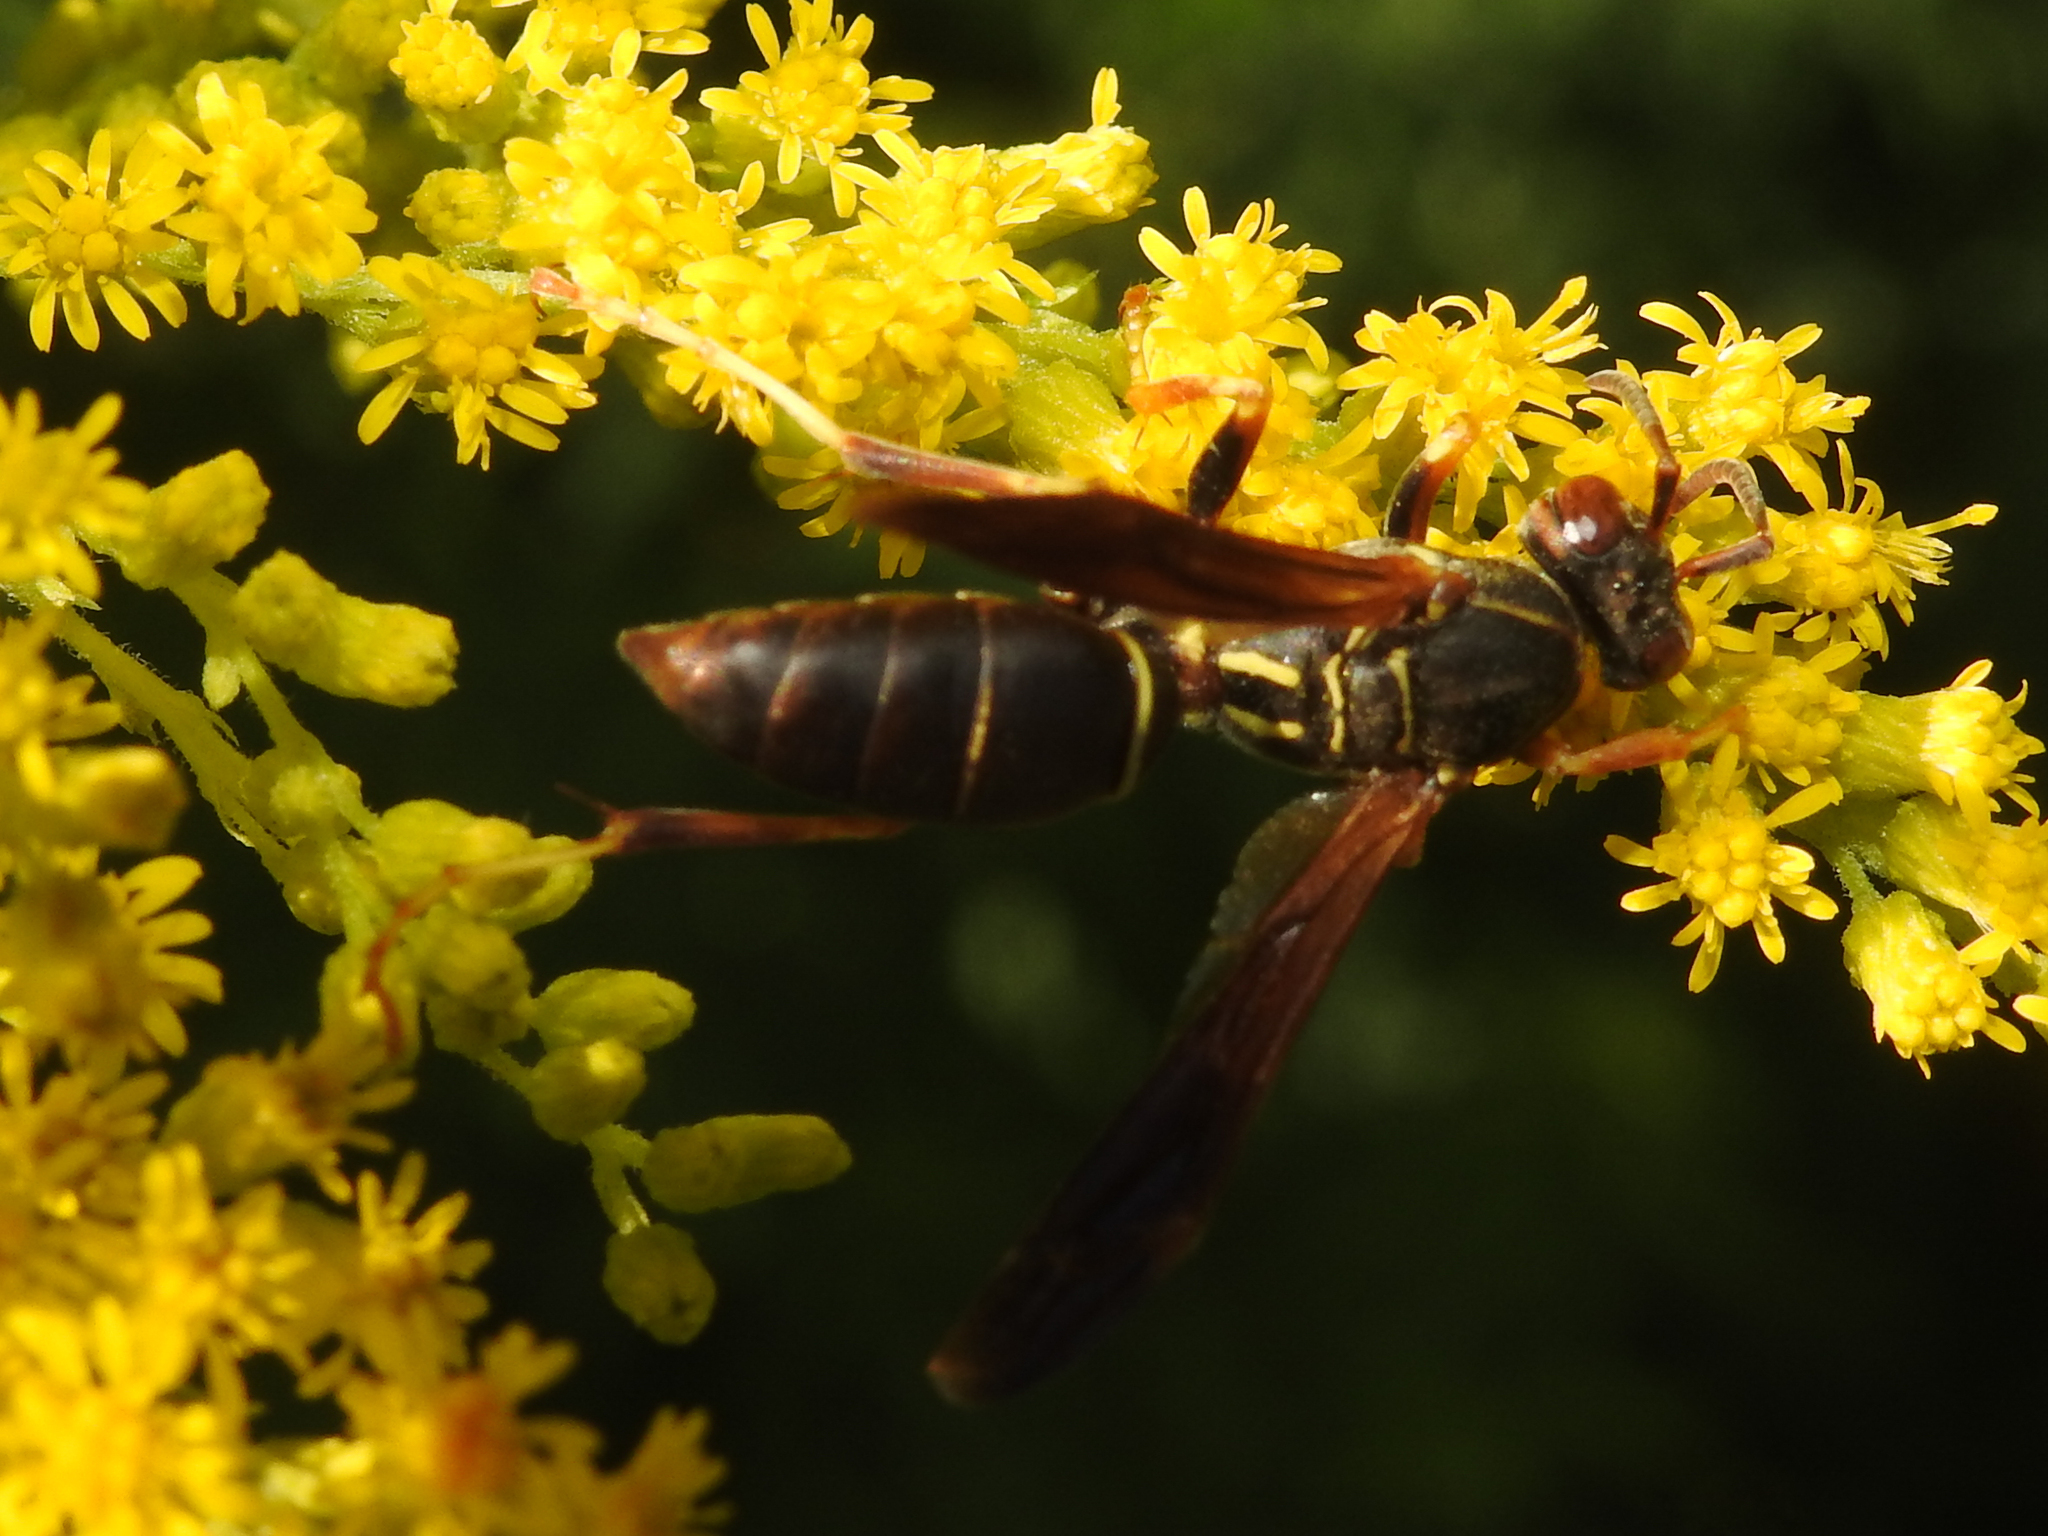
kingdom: Animalia
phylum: Arthropoda
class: Insecta
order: Hymenoptera
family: Eumenidae
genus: Polistes
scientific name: Polistes fuscatus
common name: Dark paper wasp
